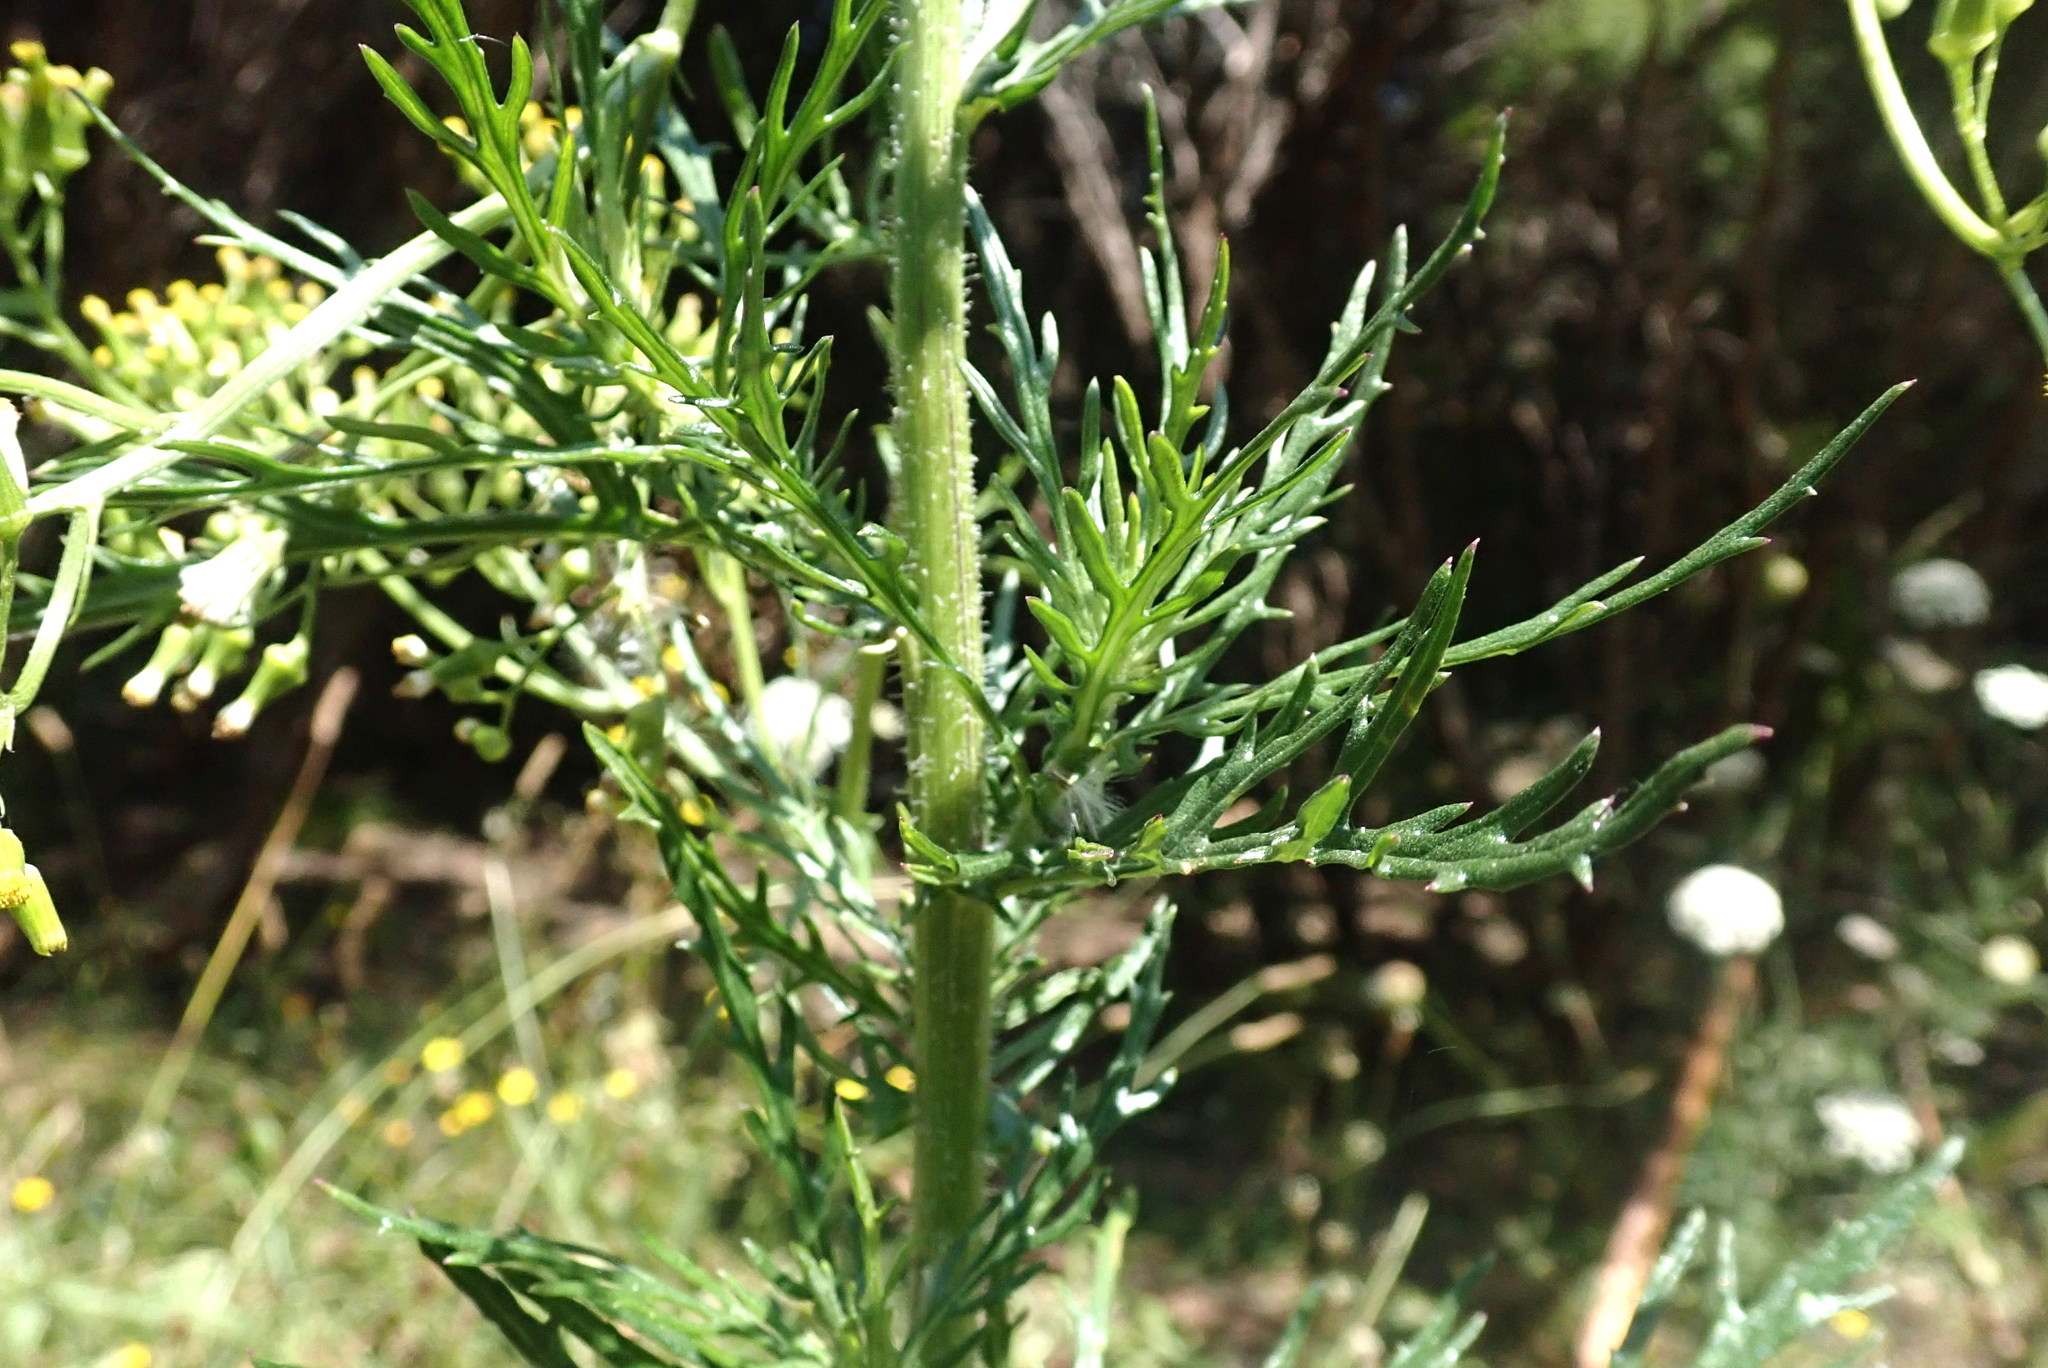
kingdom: Plantae
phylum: Tracheophyta
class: Magnoliopsida
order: Asterales
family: Asteraceae
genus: Senecio
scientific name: Senecio esleri
